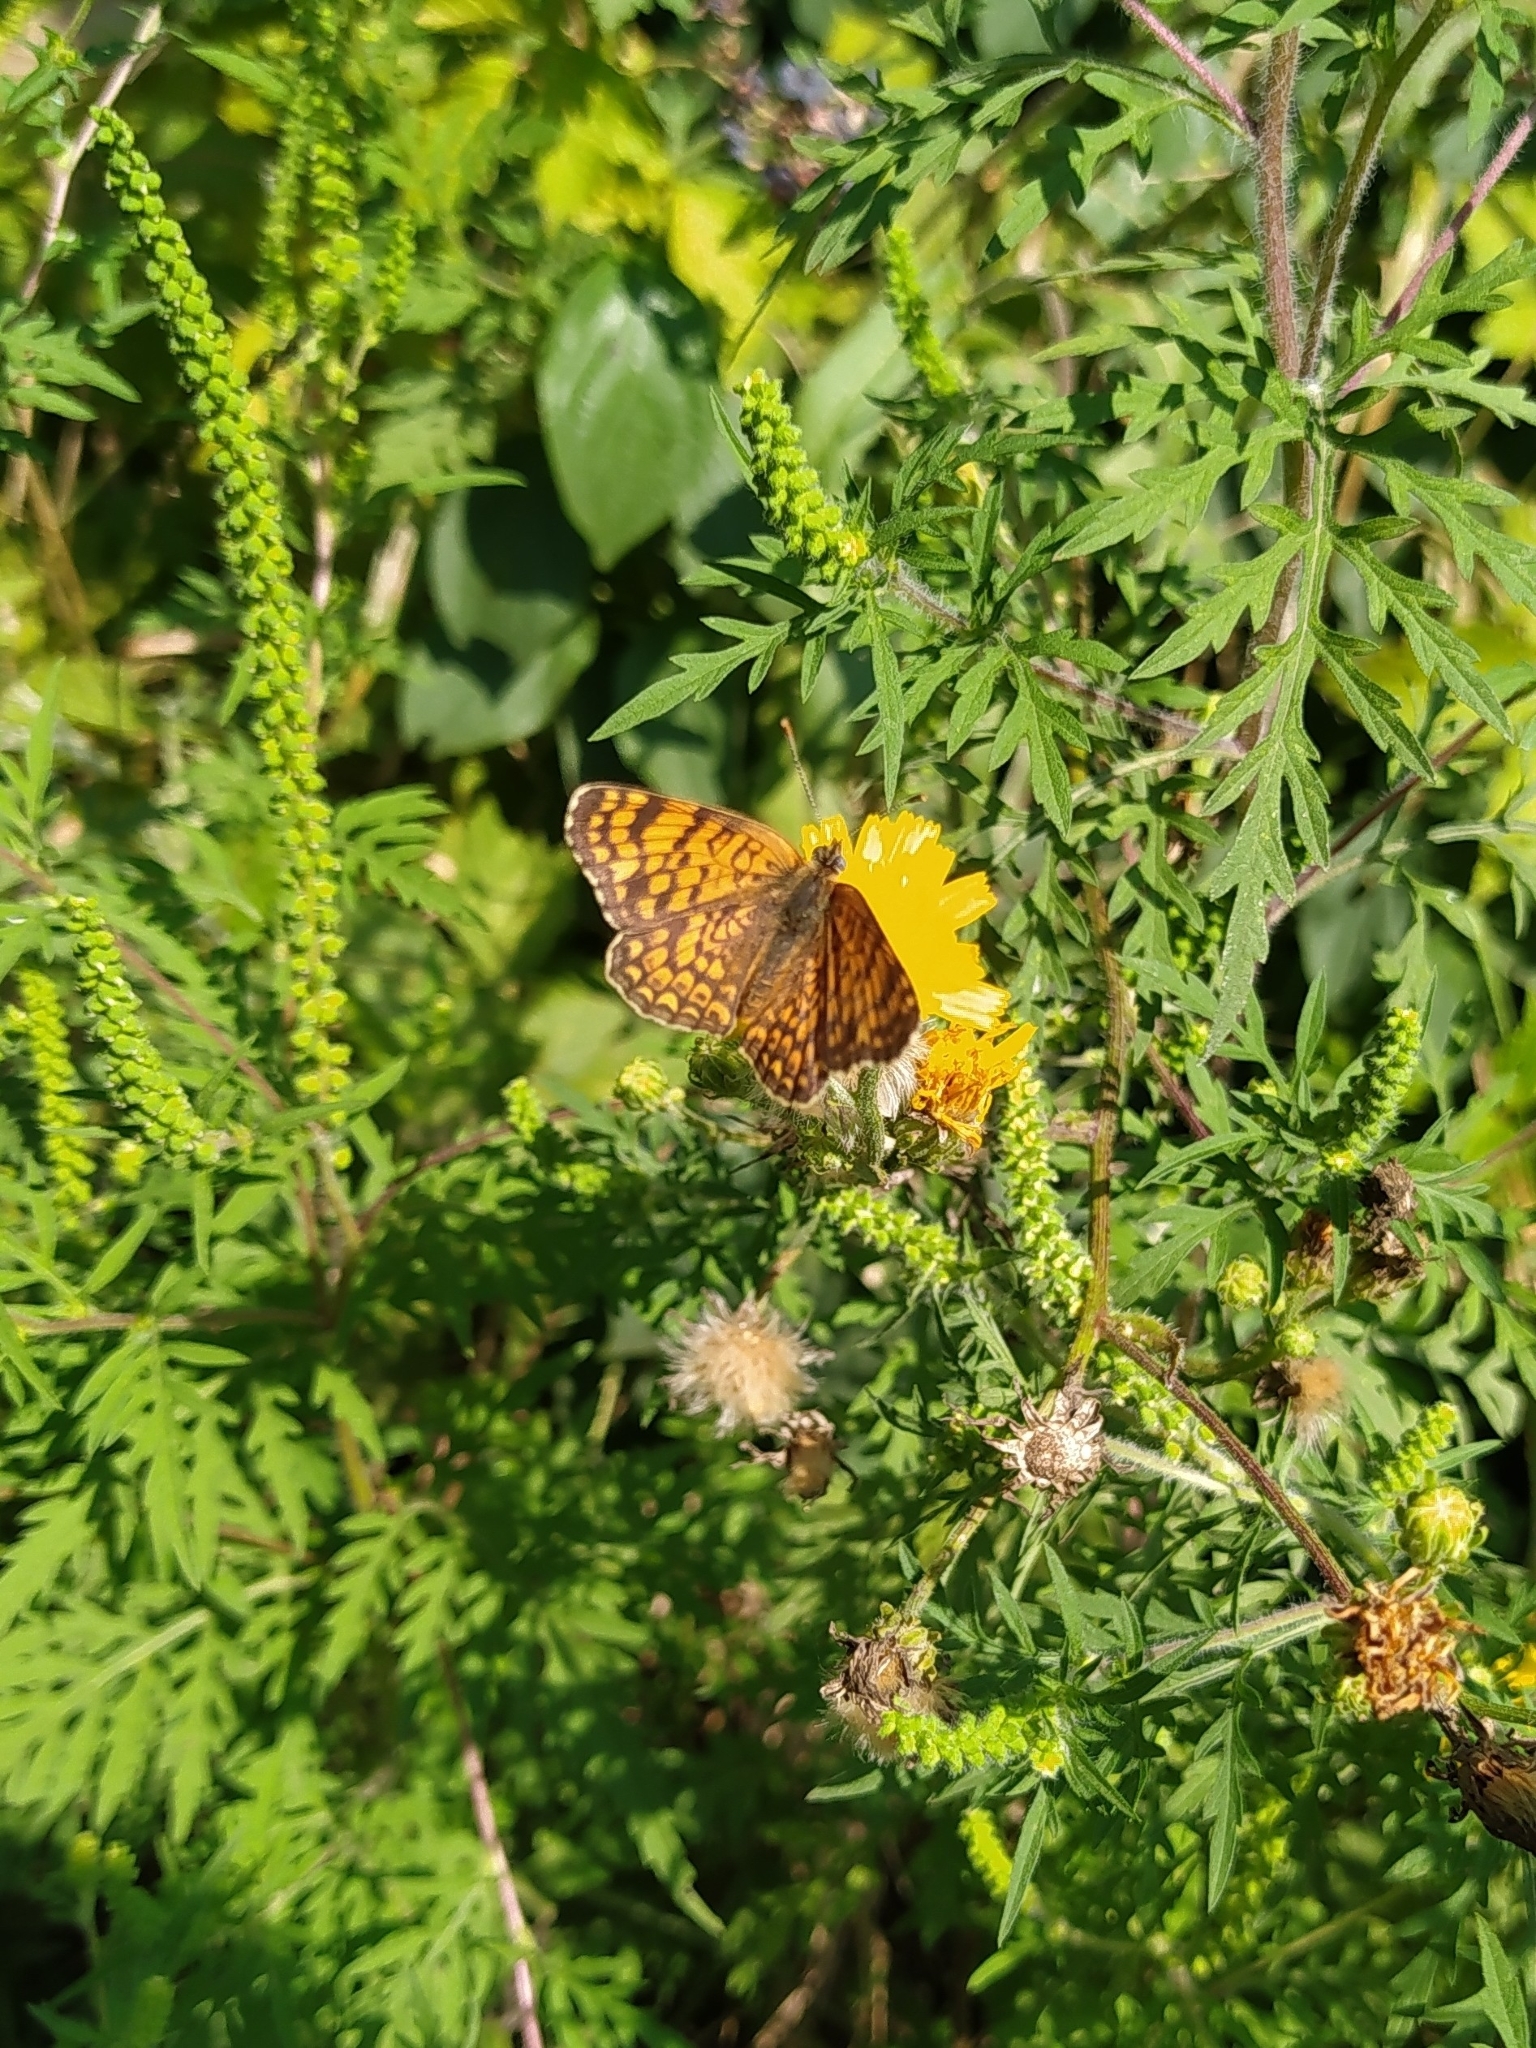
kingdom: Animalia
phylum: Arthropoda
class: Insecta
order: Lepidoptera
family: Nymphalidae
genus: Melitaea
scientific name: Melitaea phoebe
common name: Knapweed fritillary
